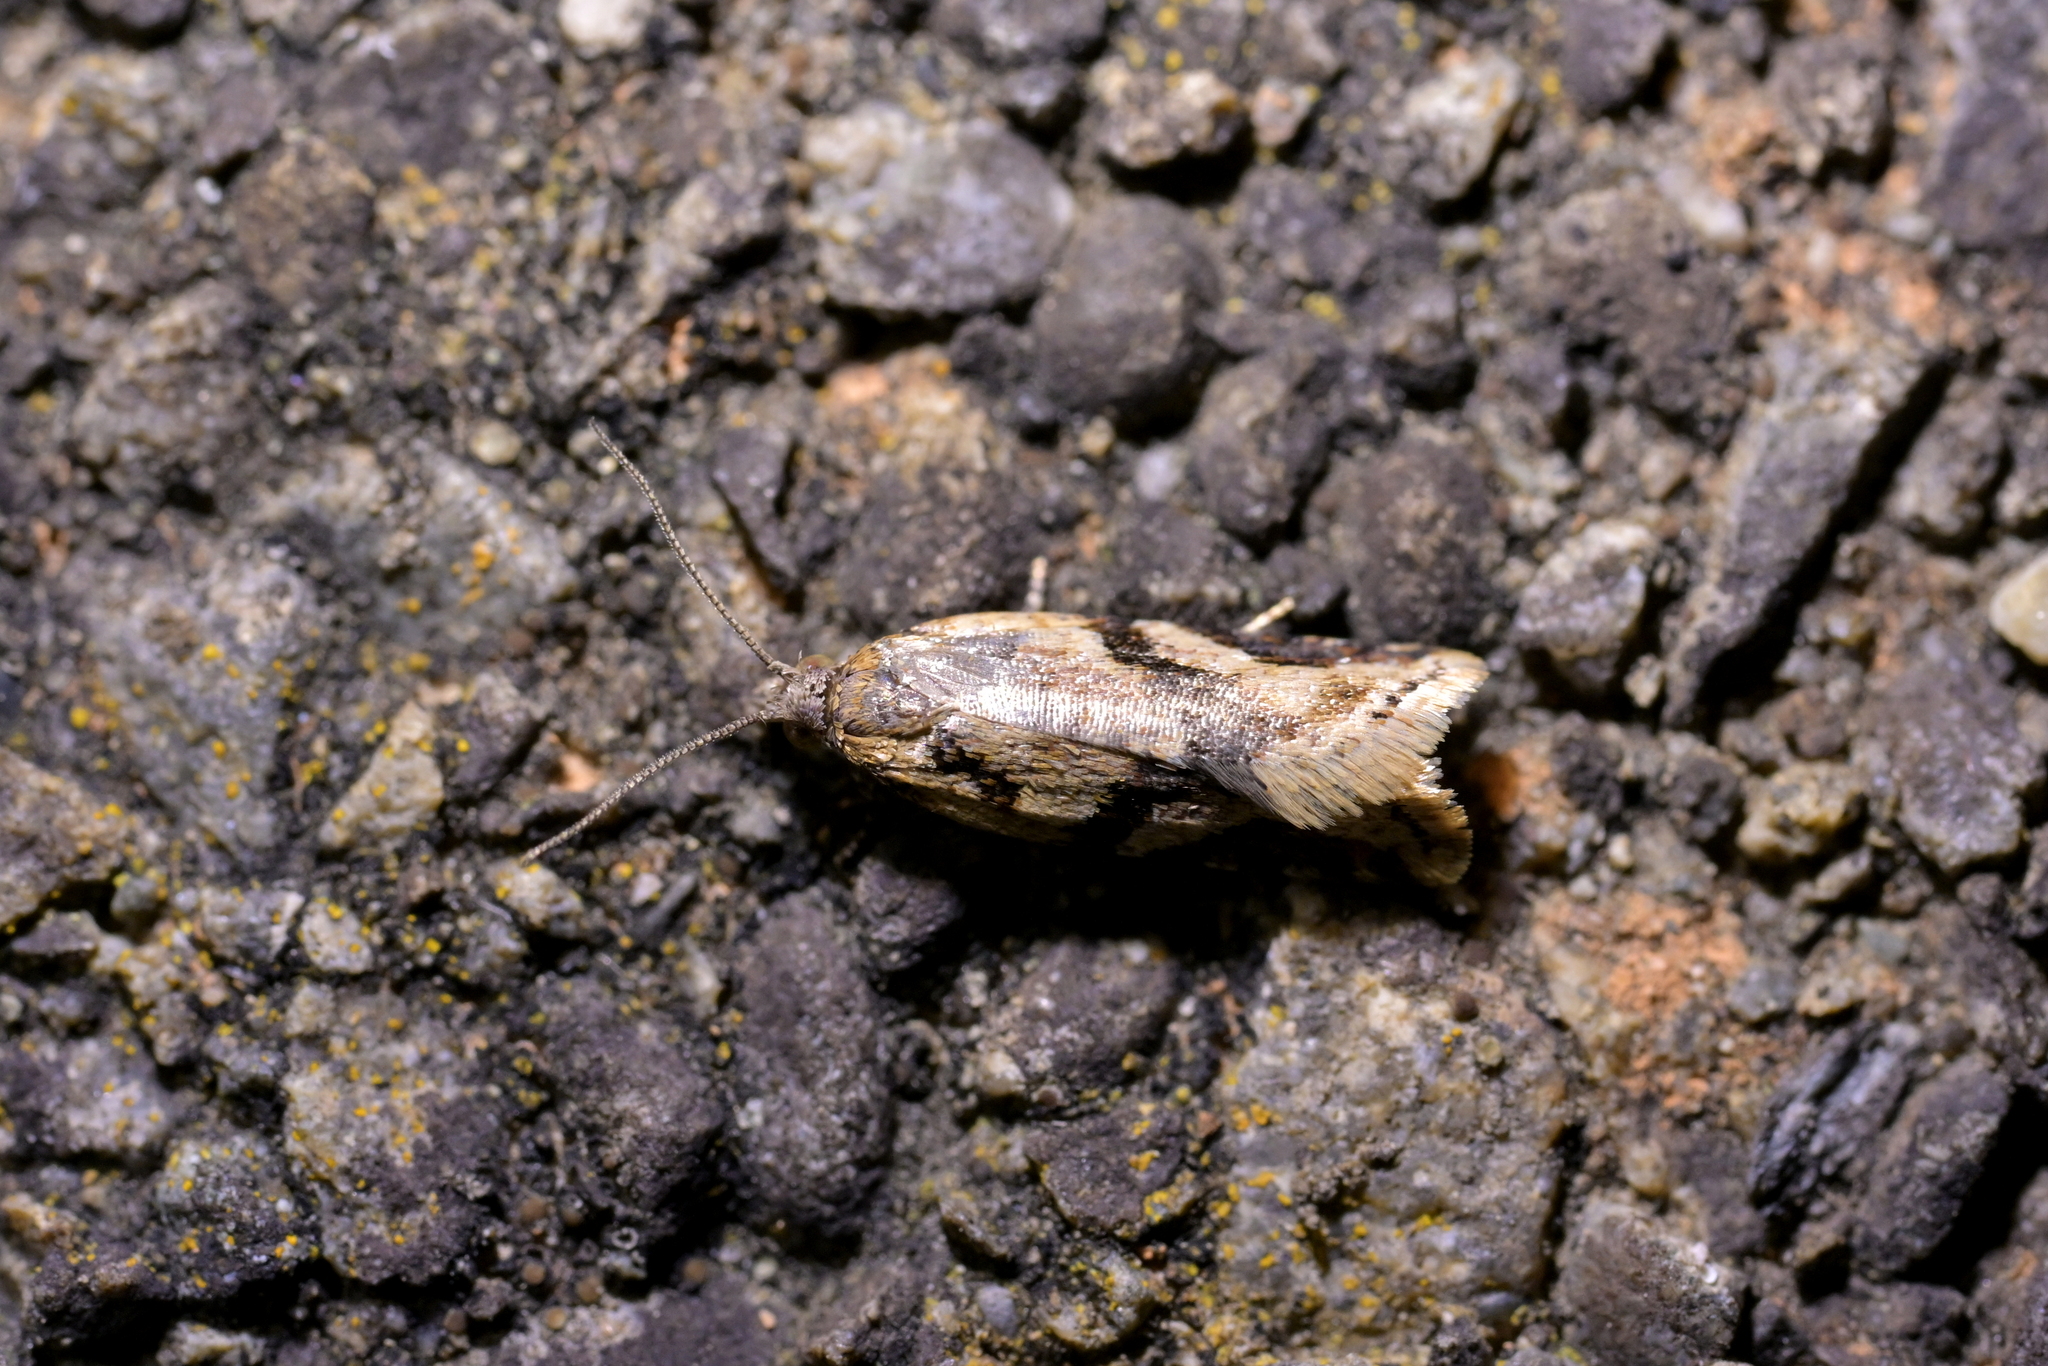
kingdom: Animalia
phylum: Arthropoda
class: Insecta
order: Lepidoptera
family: Tortricidae
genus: Capua
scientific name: Capua semiferana
